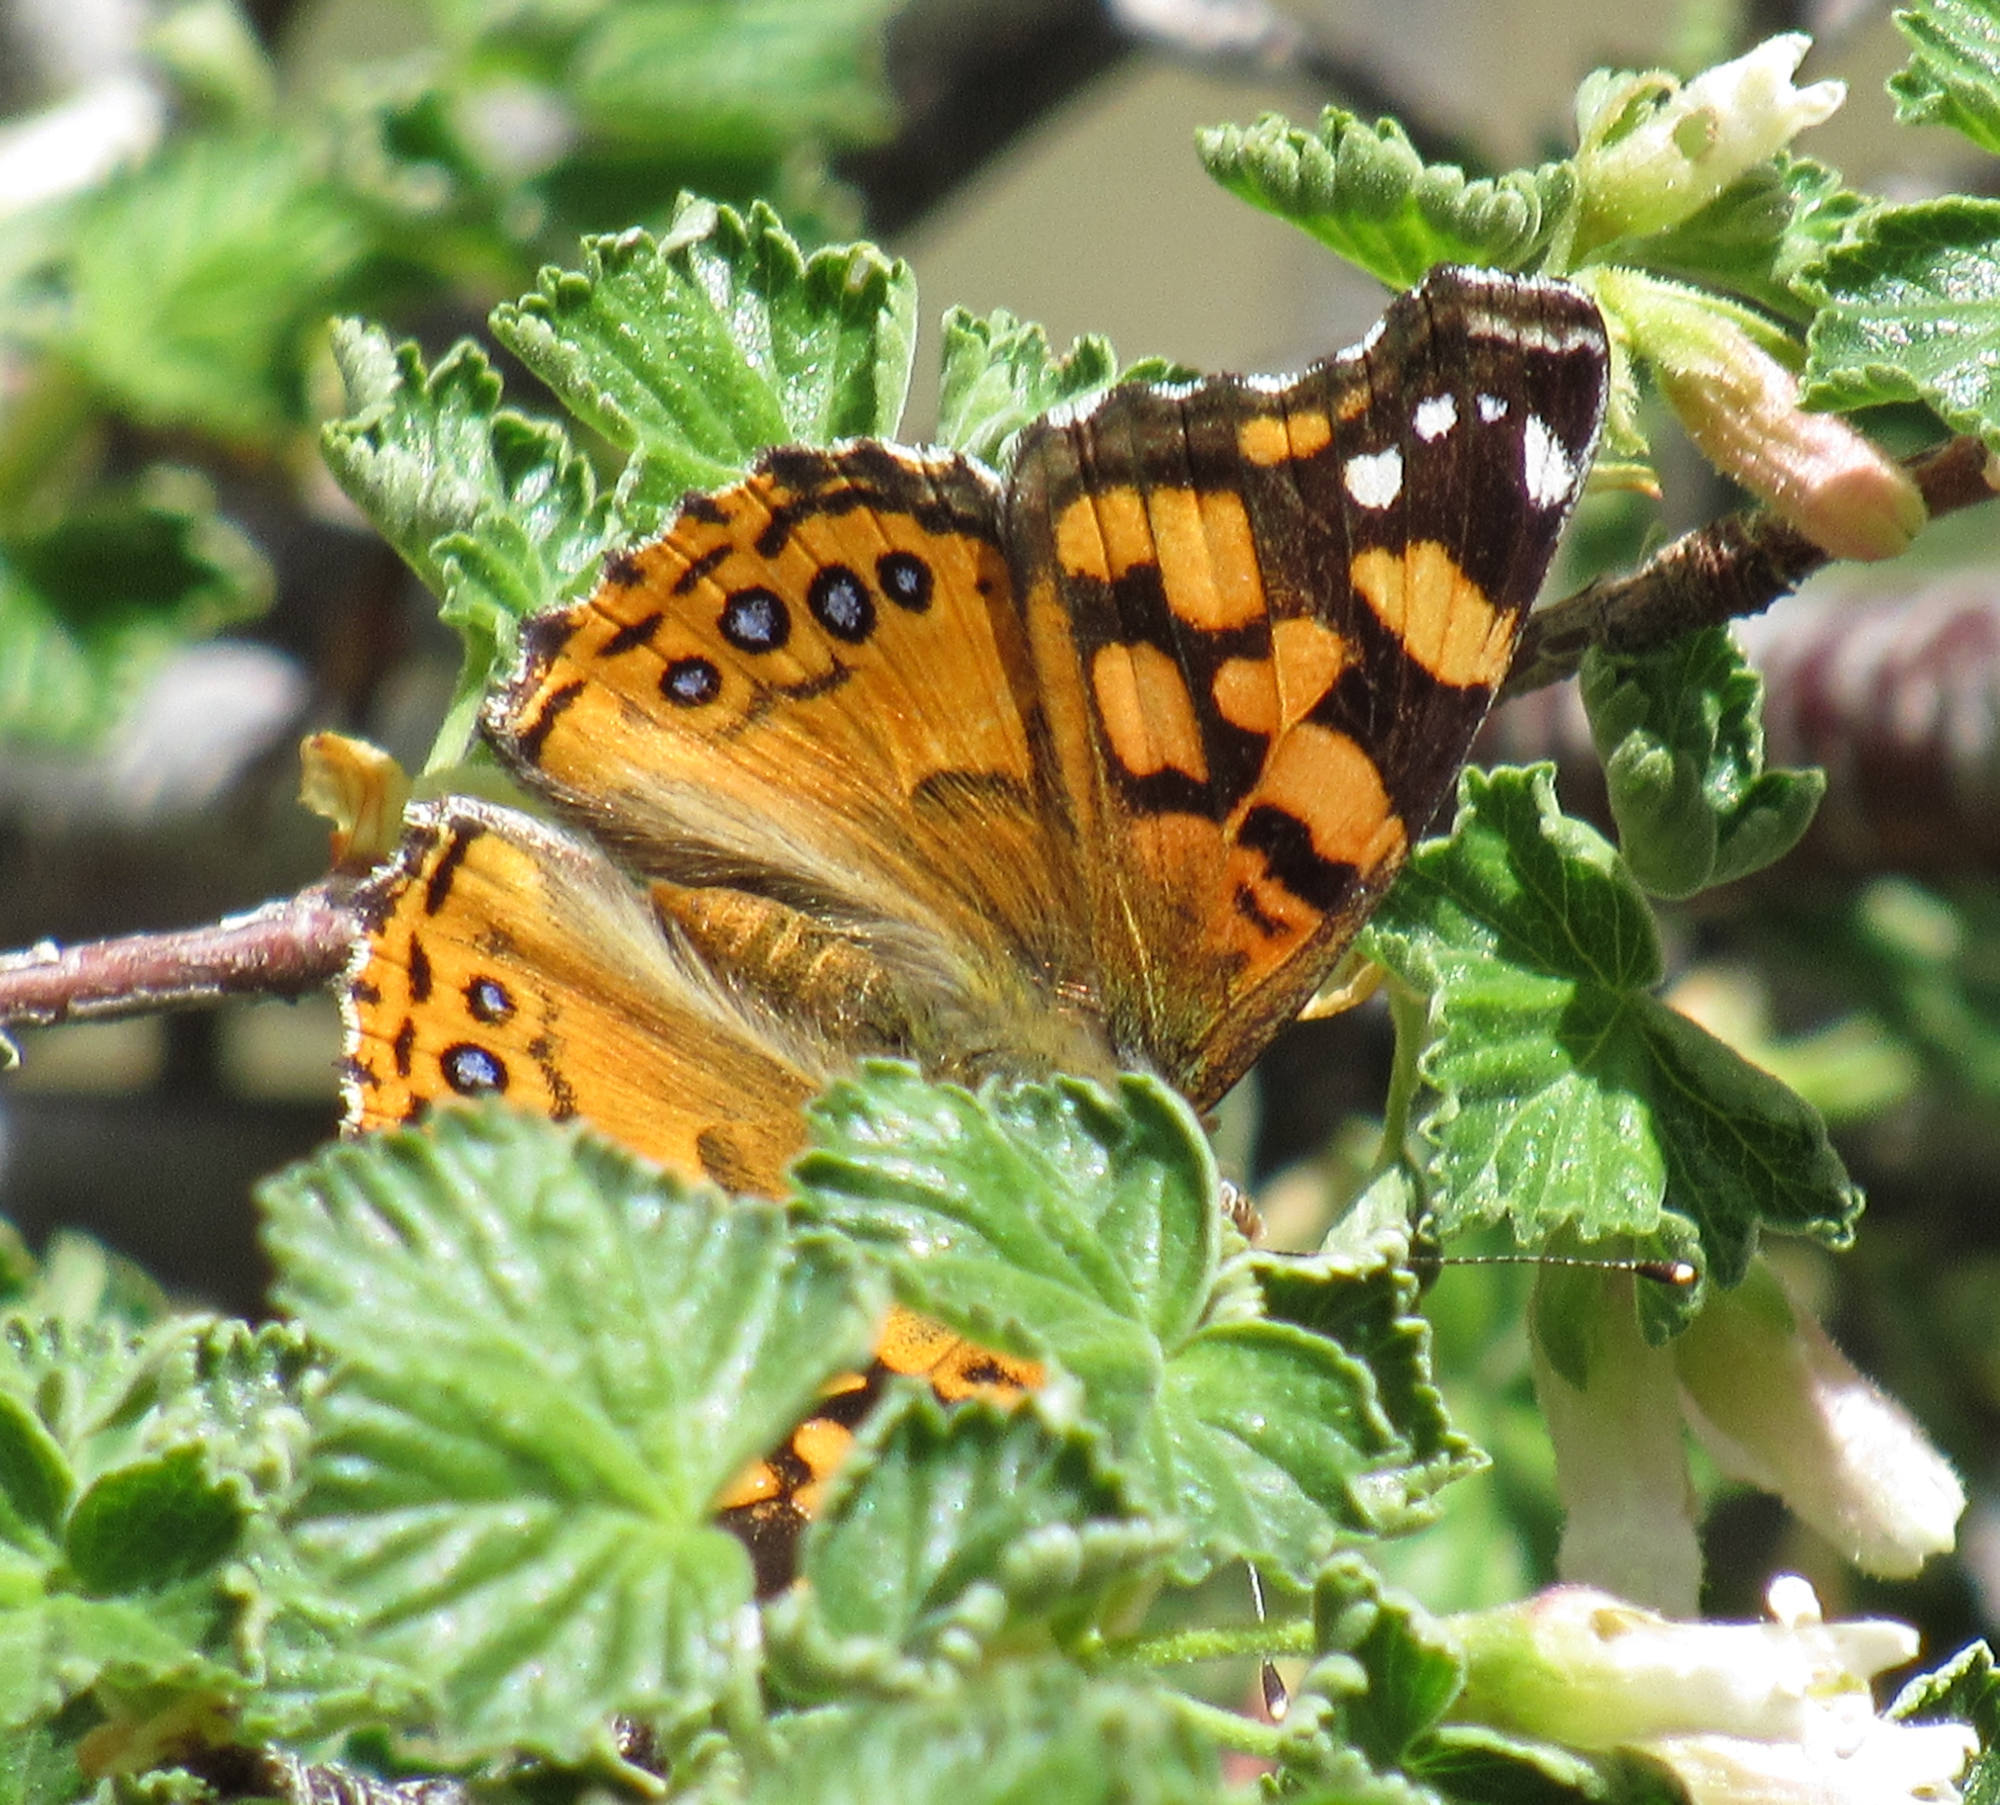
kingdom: Animalia
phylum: Arthropoda
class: Insecta
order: Lepidoptera
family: Nymphalidae
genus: Vanessa
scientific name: Vanessa annabella
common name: West coast lady
